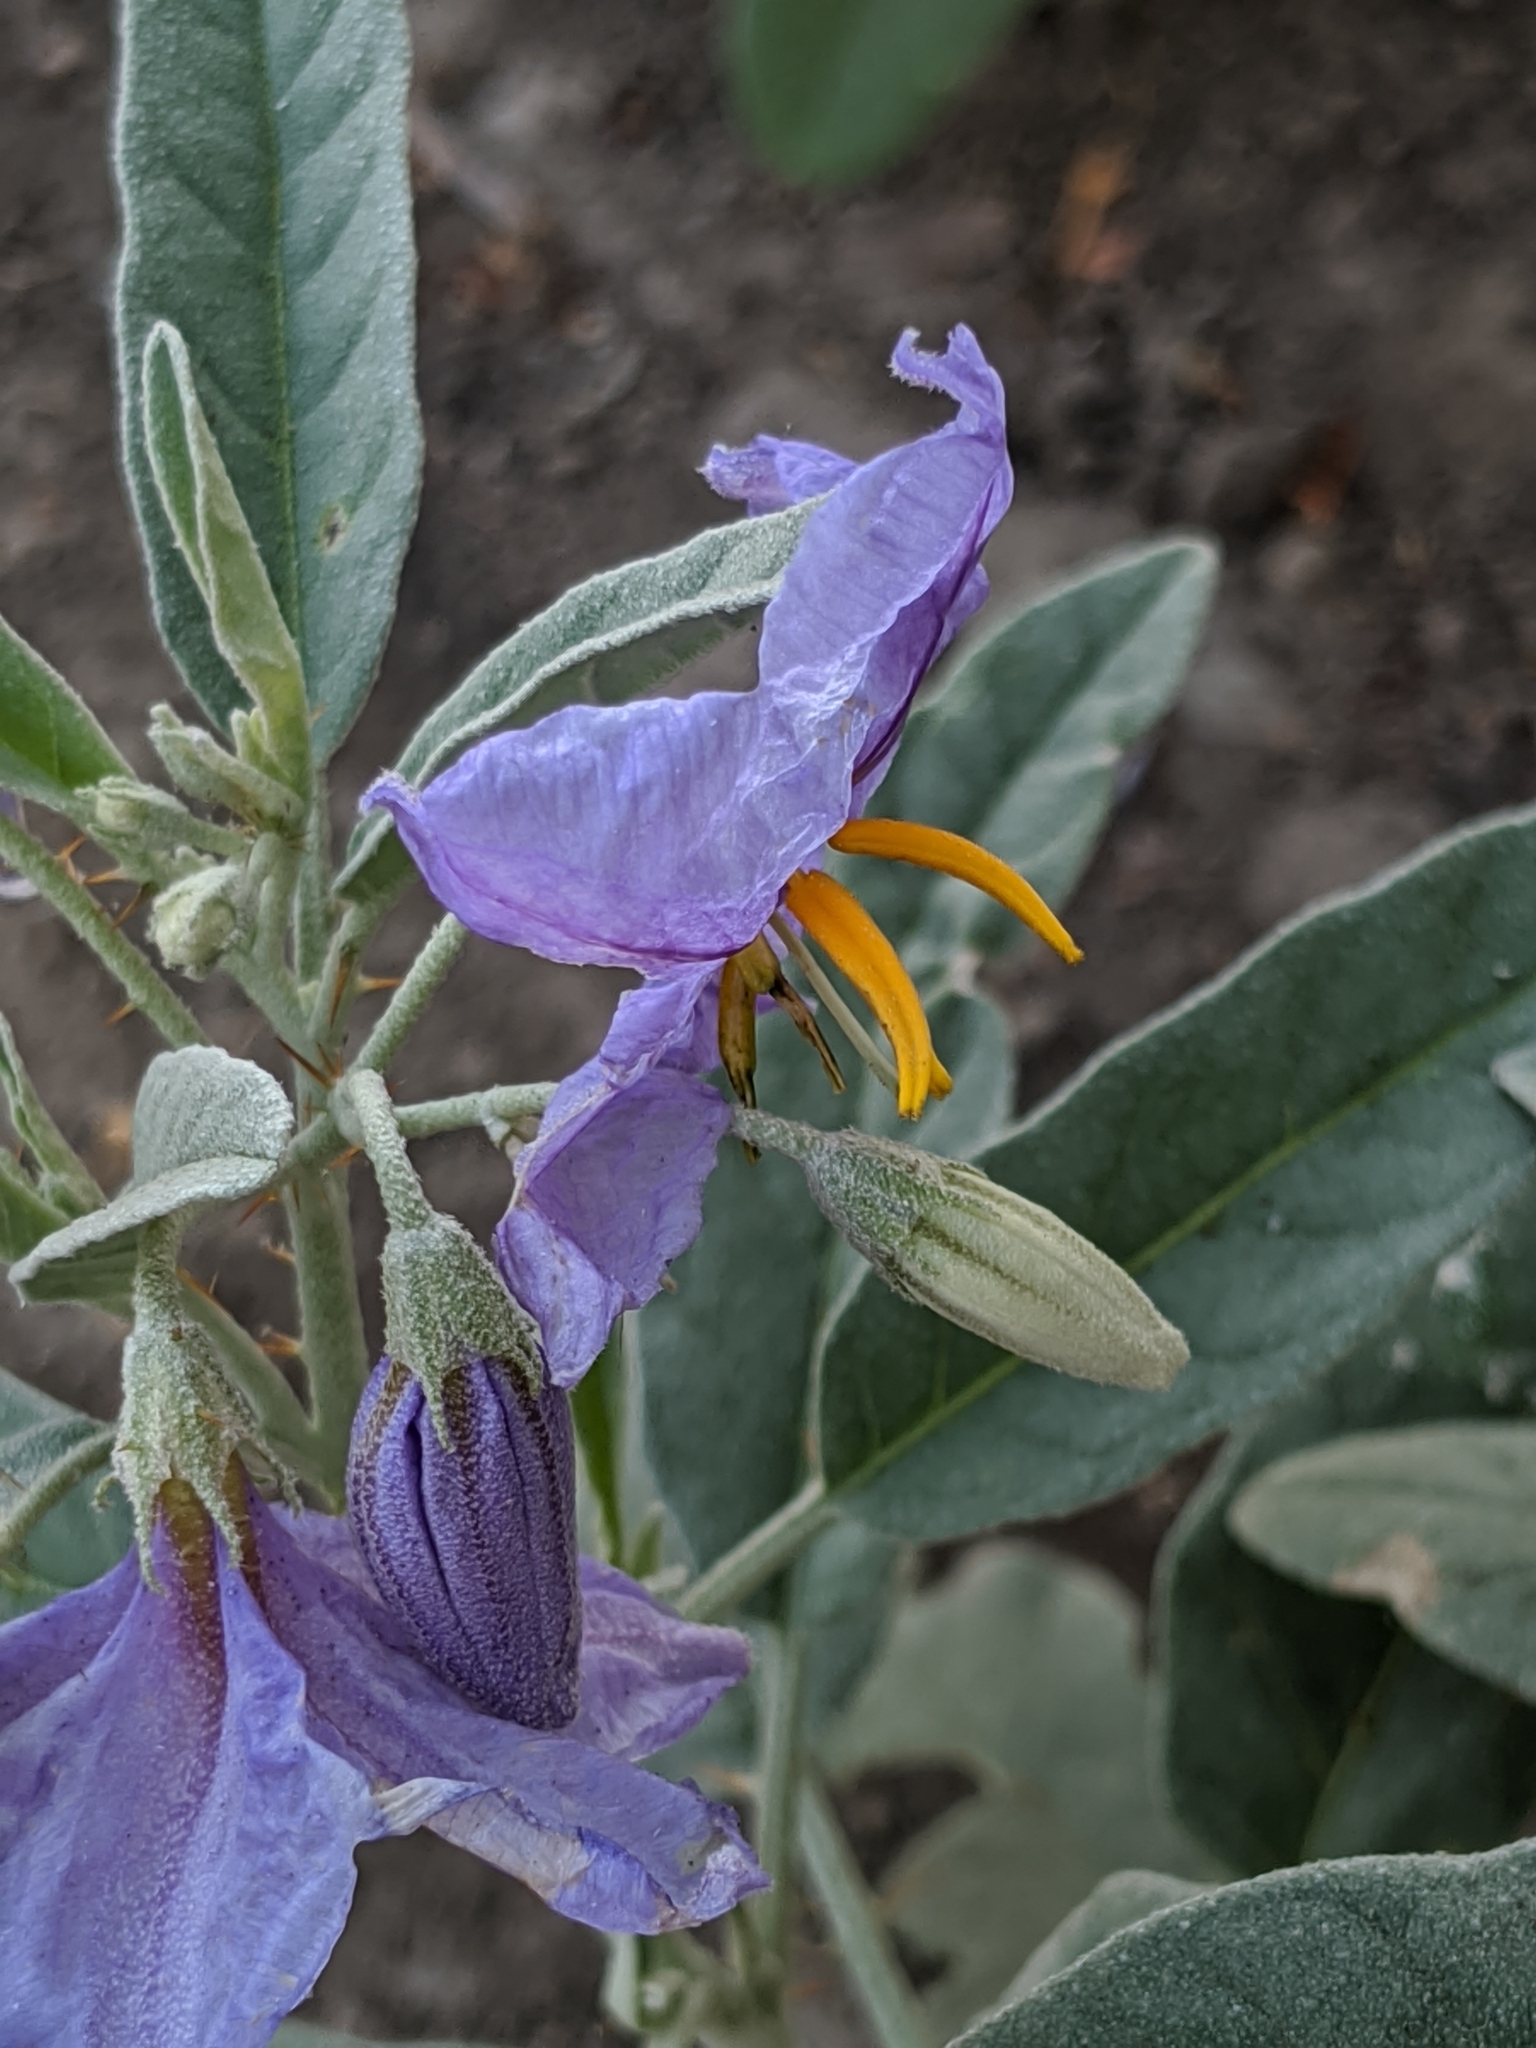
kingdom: Plantae
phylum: Tracheophyta
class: Magnoliopsida
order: Solanales
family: Solanaceae
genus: Solanum
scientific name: Solanum elaeagnifolium
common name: Silverleaf nightshade
